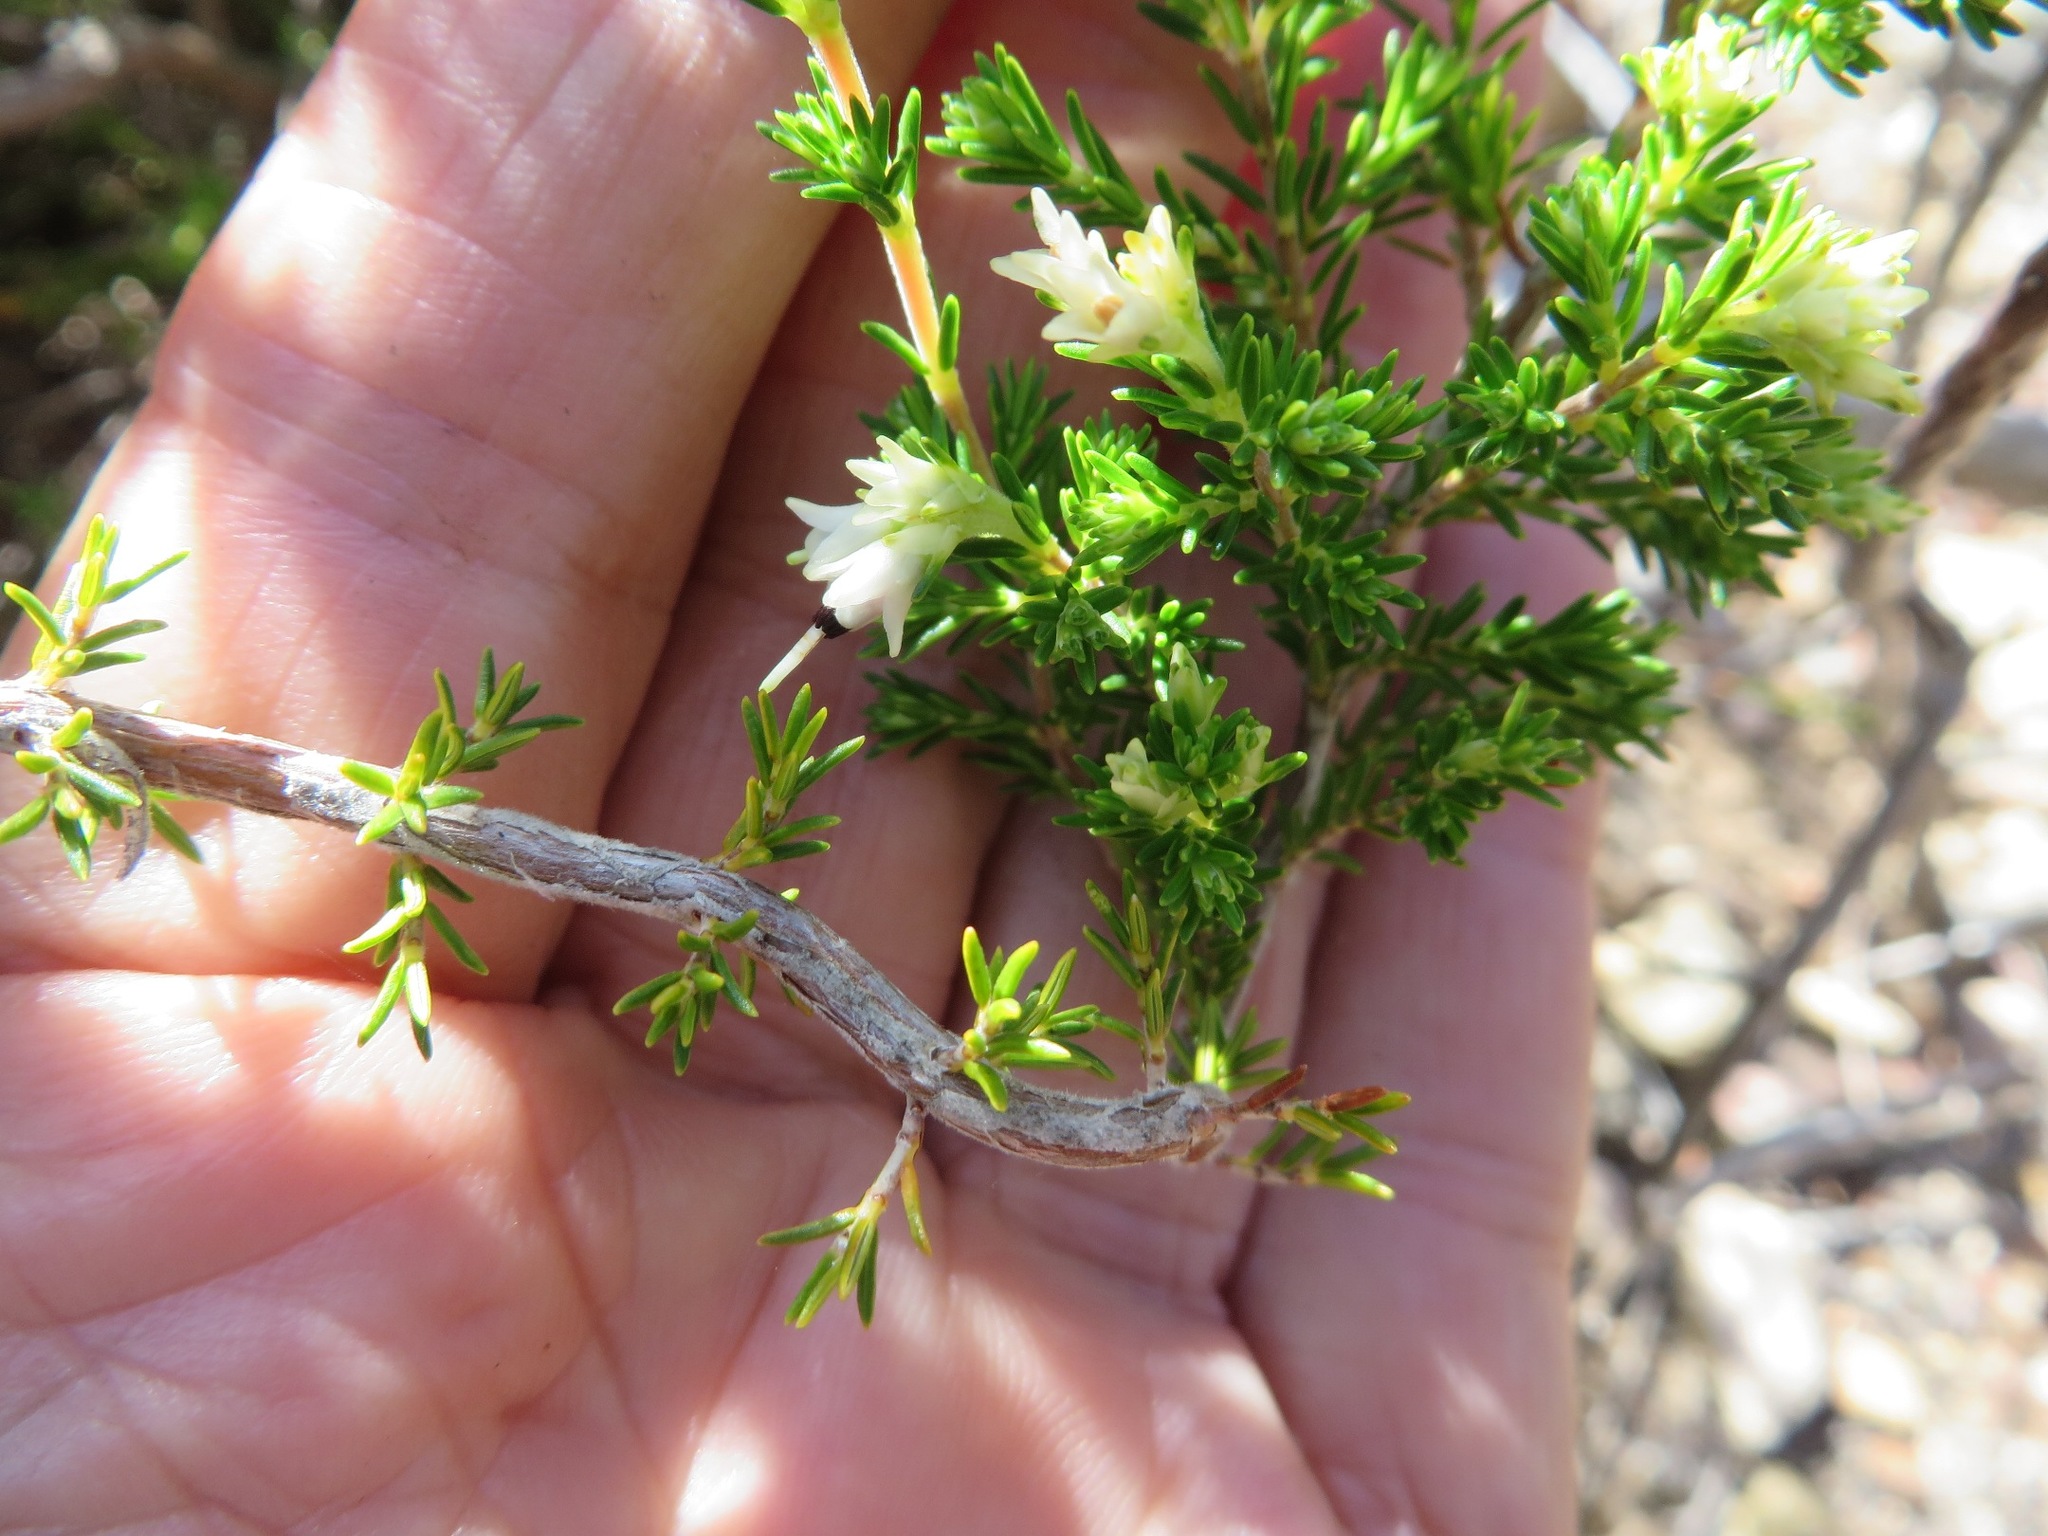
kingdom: Plantae
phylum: Tracheophyta
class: Magnoliopsida
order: Ericales
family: Ericaceae
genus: Erica
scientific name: Erica imbricata
